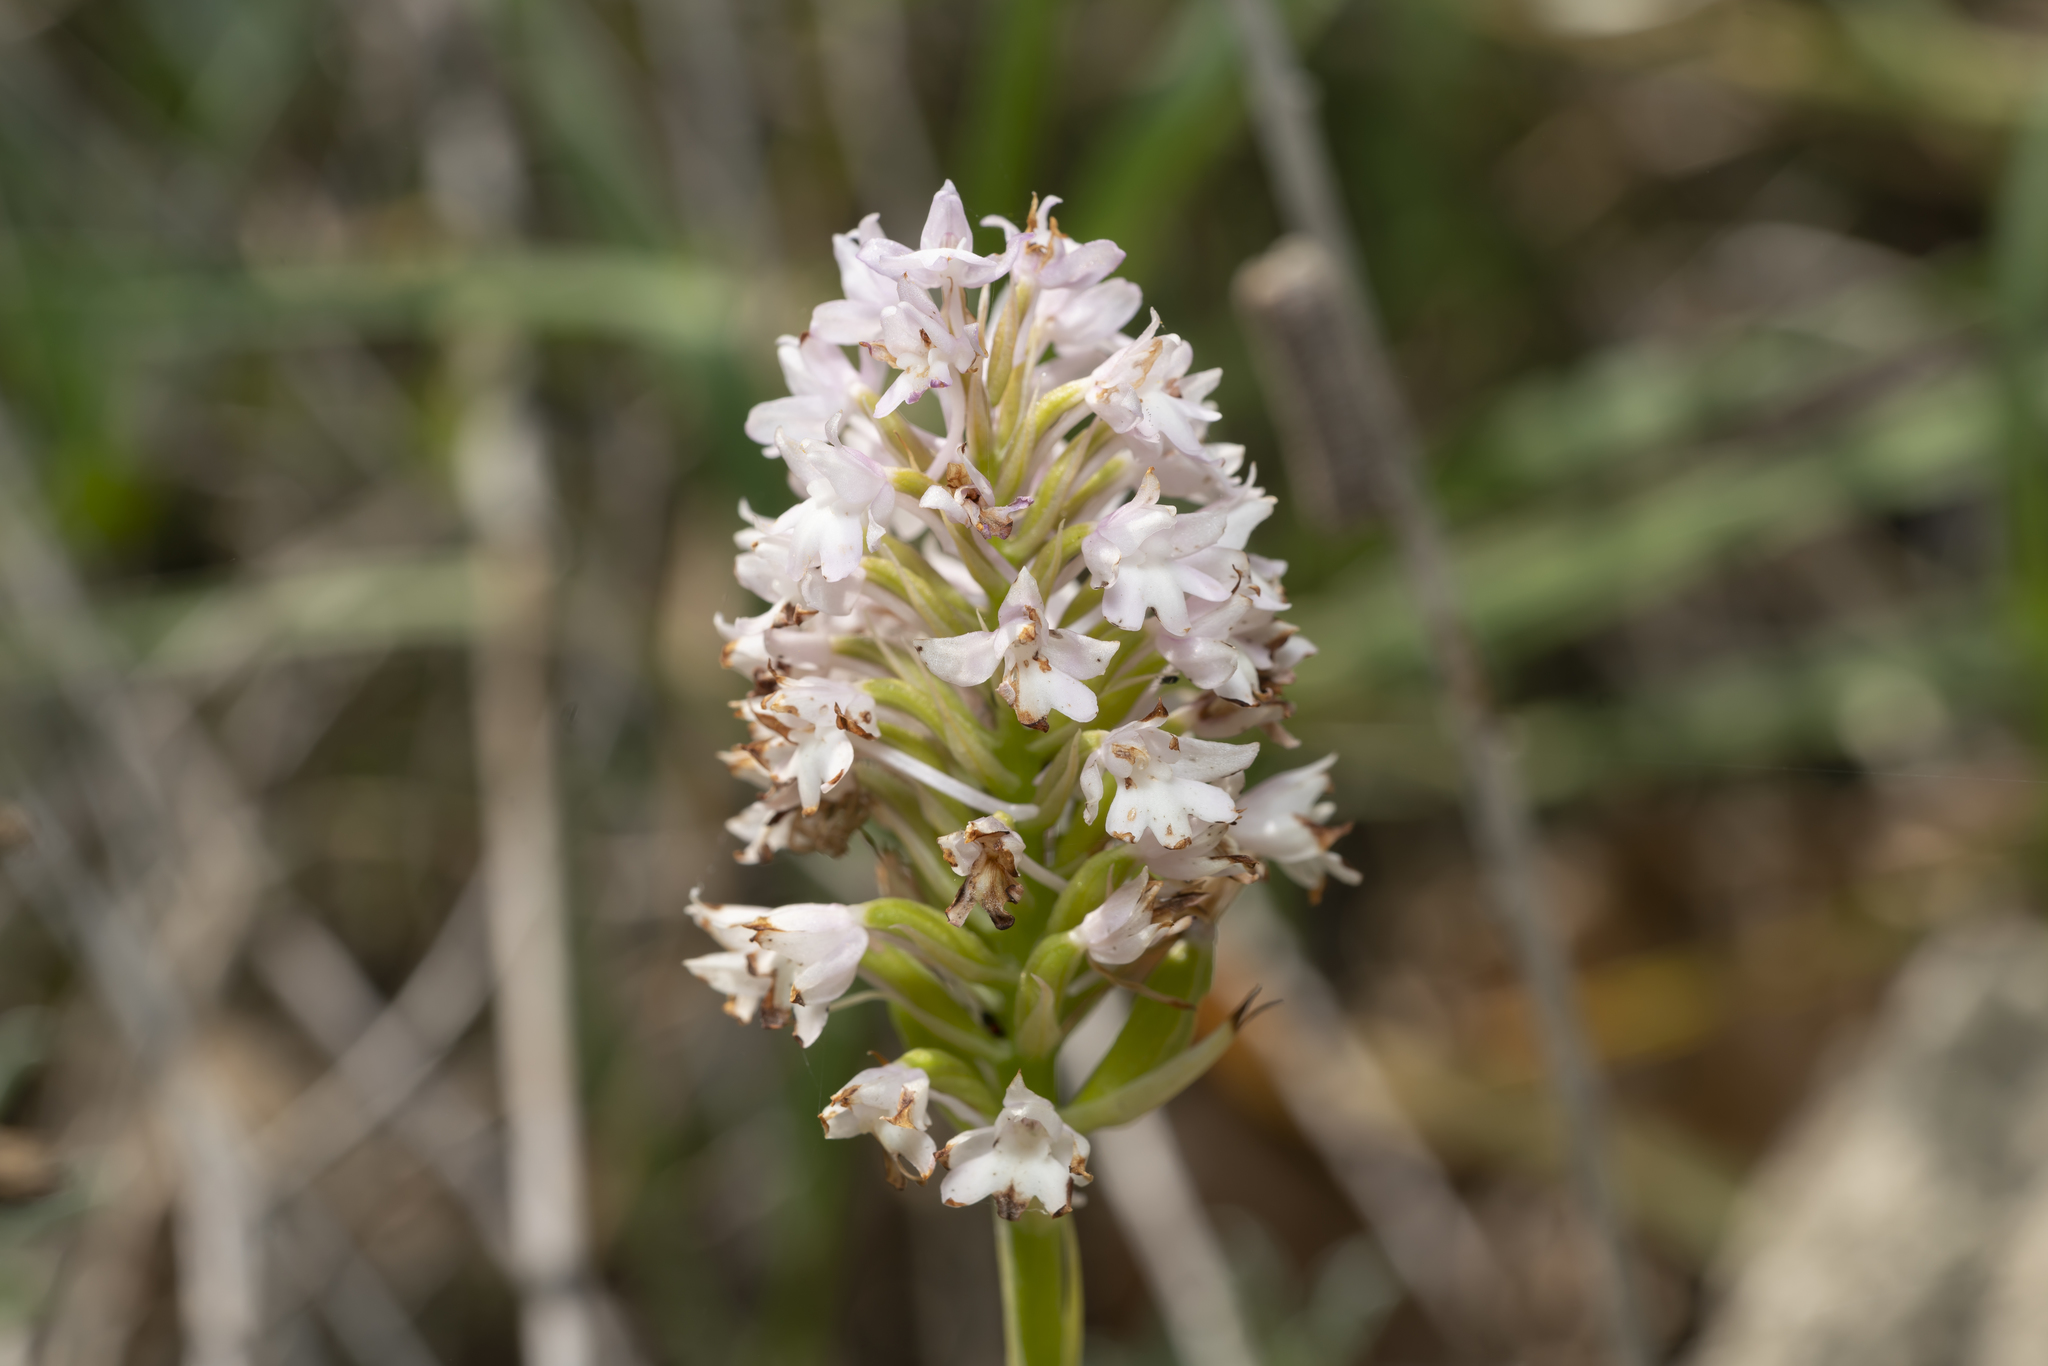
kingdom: Plantae
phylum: Tracheophyta
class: Liliopsida
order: Asparagales
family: Orchidaceae
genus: Anacamptis
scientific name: Anacamptis pyramidalis
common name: Pyramidal orchid
